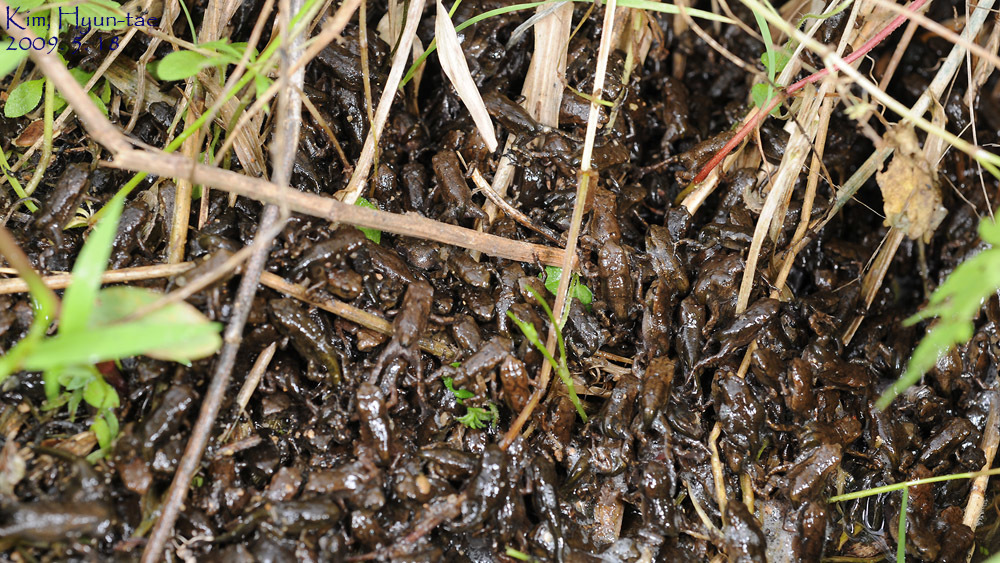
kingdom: Animalia
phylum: Chordata
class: Amphibia
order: Anura
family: Bufonidae
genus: Bufo
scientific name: Bufo gargarizans
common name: Asiatic toad
